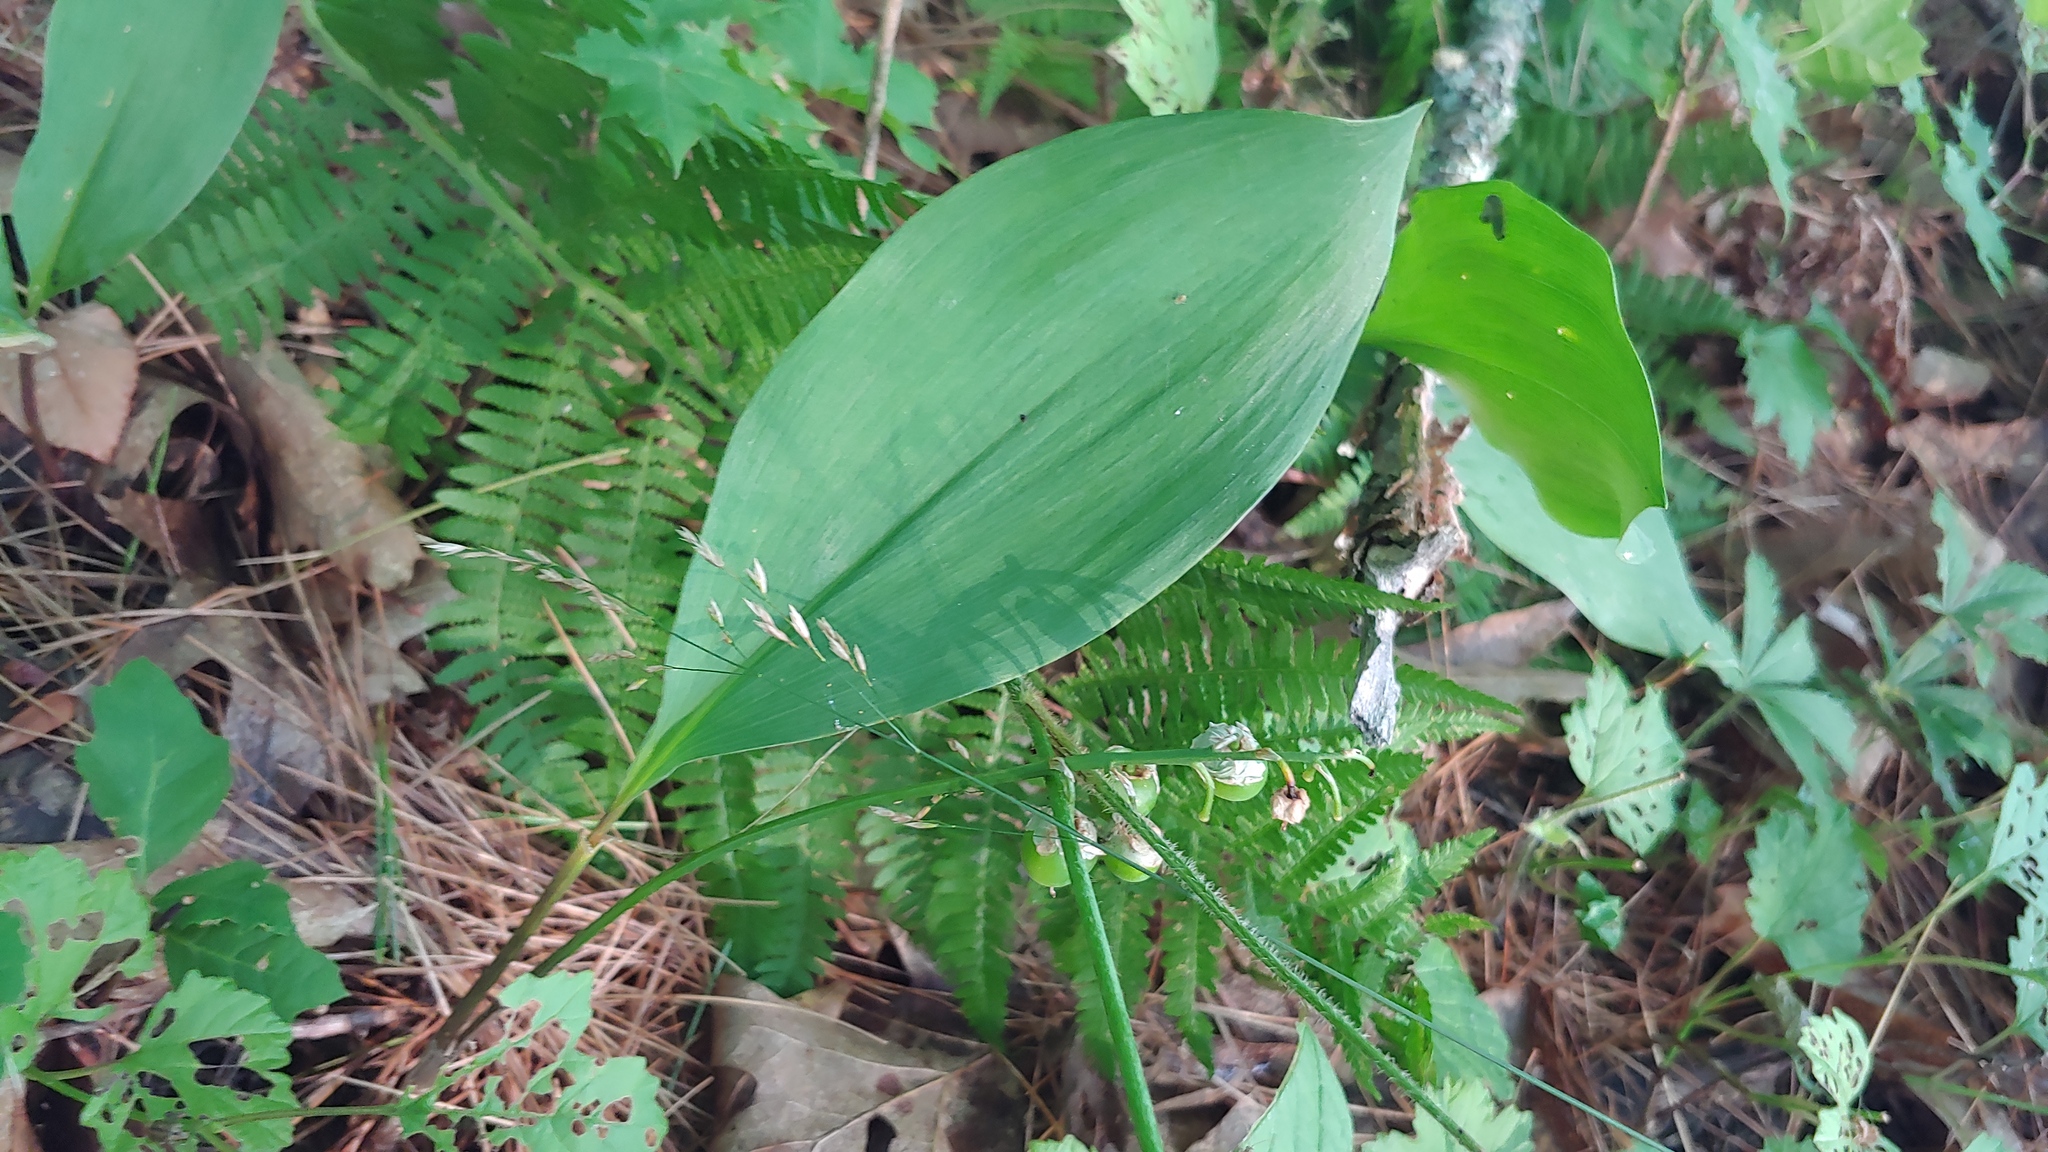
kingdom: Plantae
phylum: Tracheophyta
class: Liliopsida
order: Asparagales
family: Asparagaceae
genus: Convallaria
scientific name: Convallaria majalis
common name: Lily-of-the-valley
